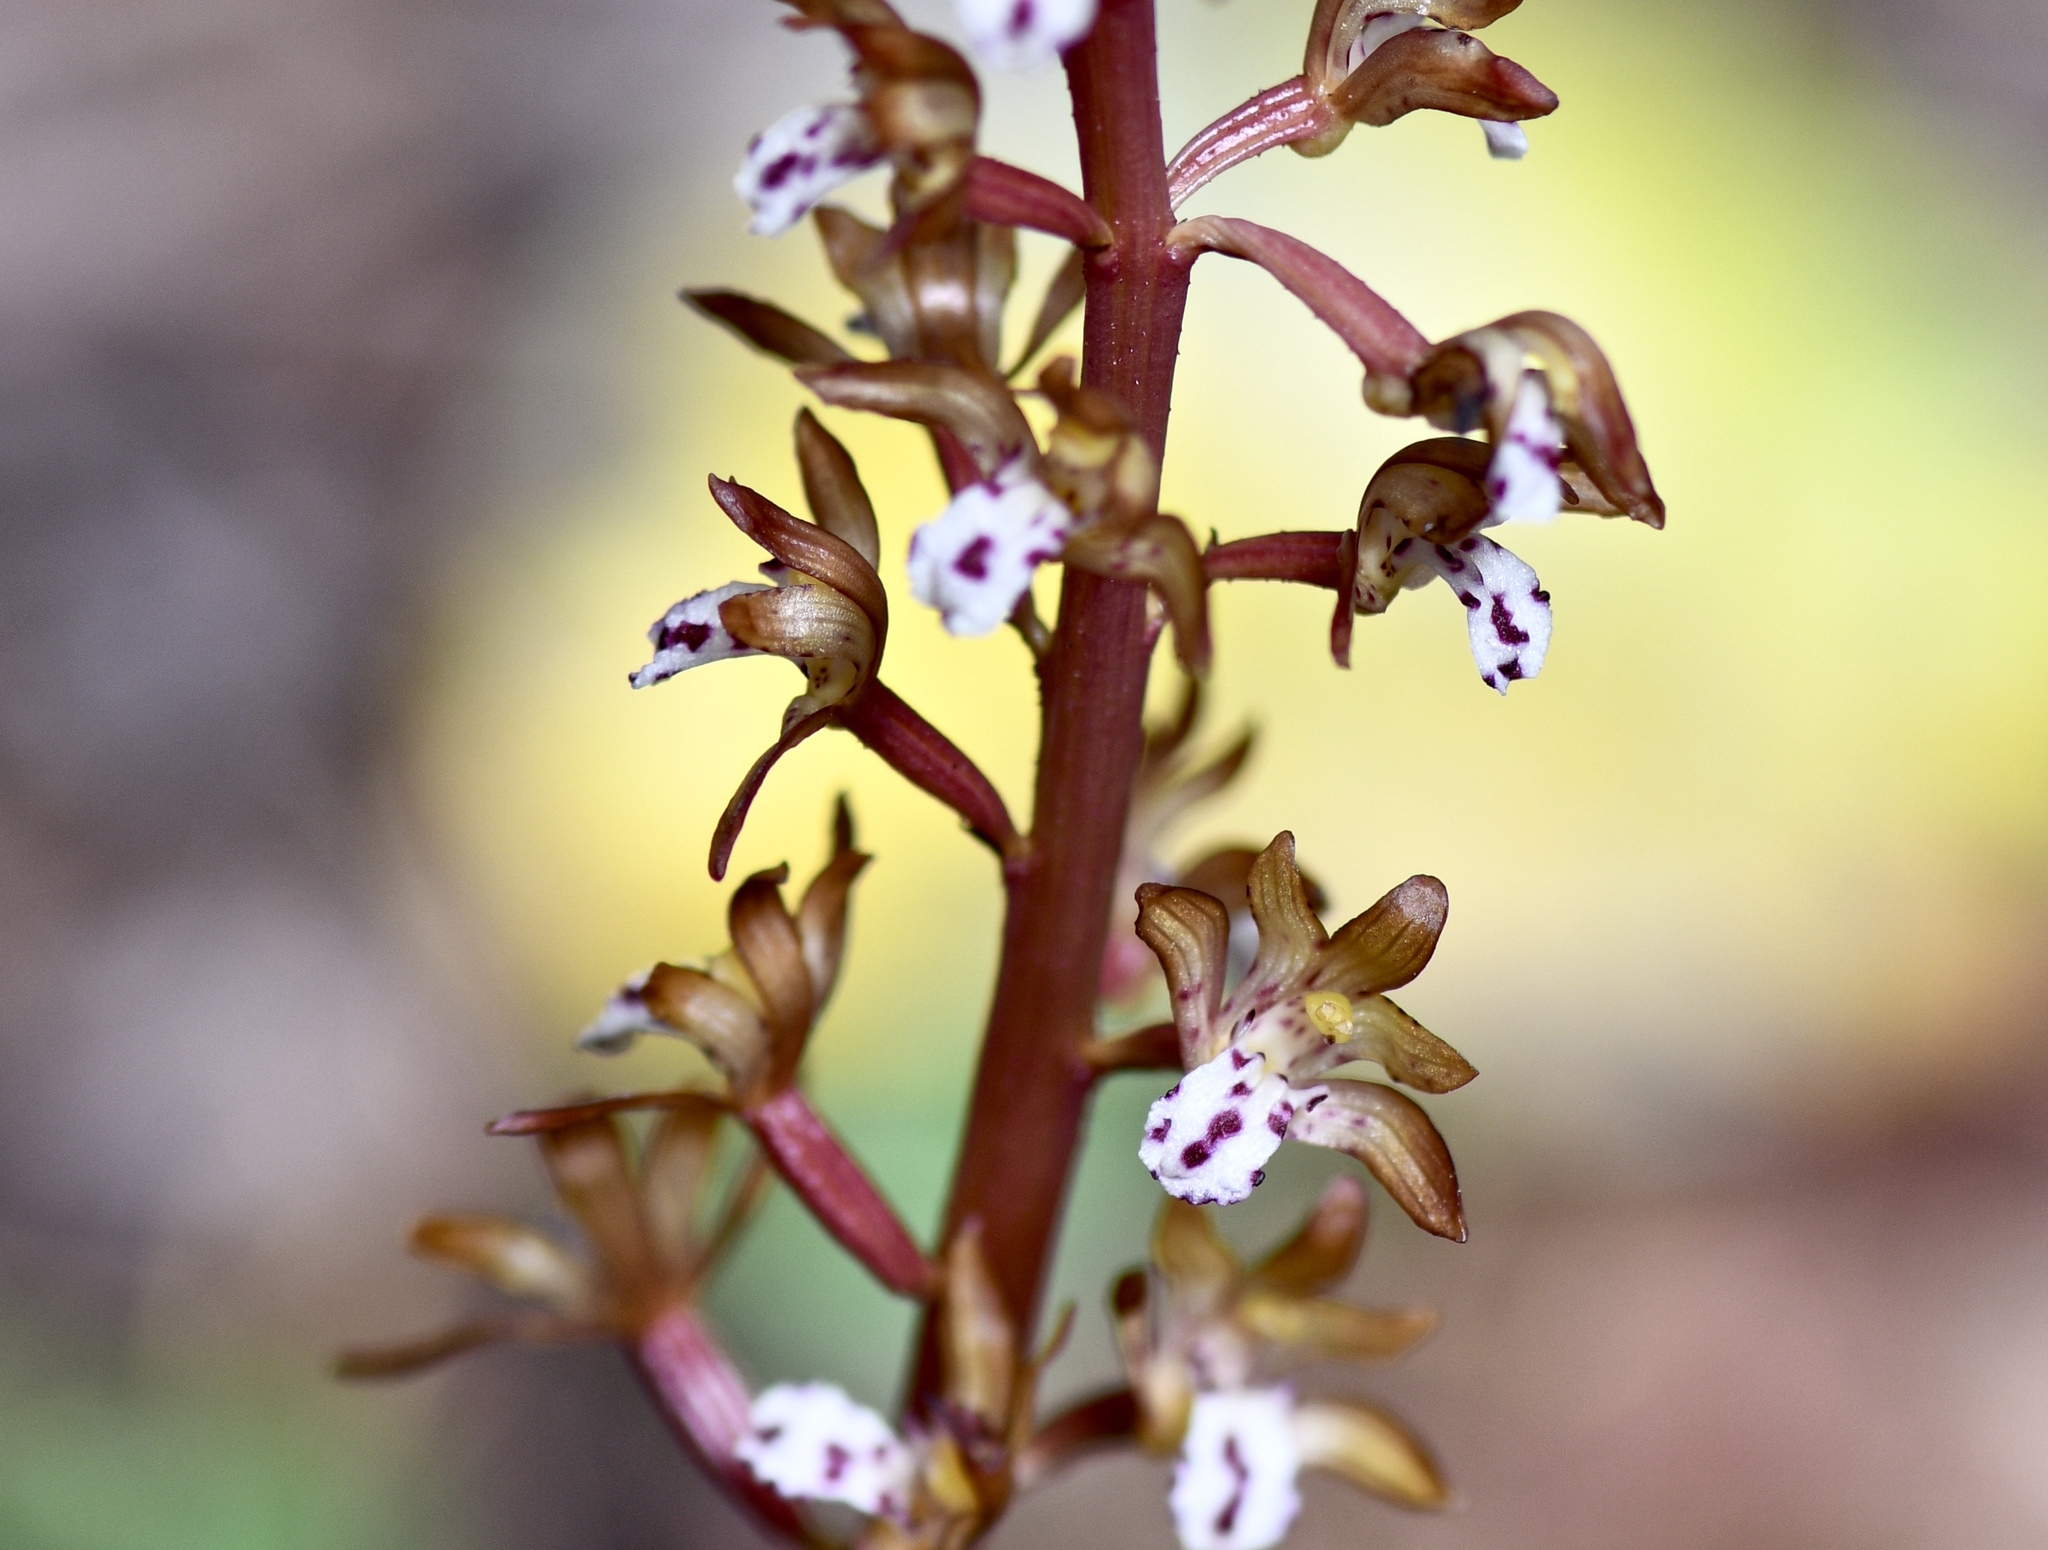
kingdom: Plantae
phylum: Tracheophyta
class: Liliopsida
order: Asparagales
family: Orchidaceae
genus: Corallorhiza
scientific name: Corallorhiza maculata
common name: Spotted coralroot
